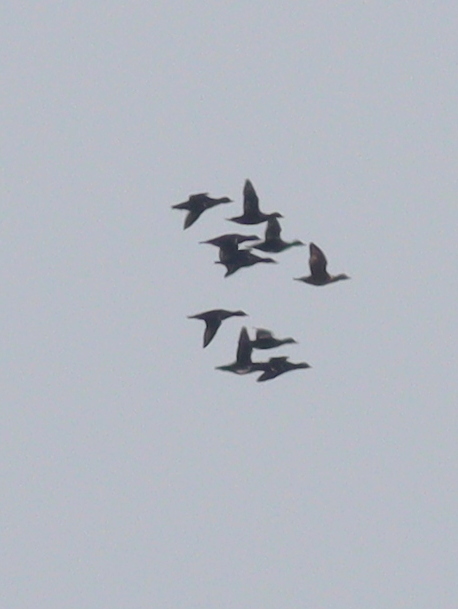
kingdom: Animalia
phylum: Chordata
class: Aves
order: Anseriformes
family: Anatidae
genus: Melanitta
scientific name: Melanitta nigra
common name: Common scoter
